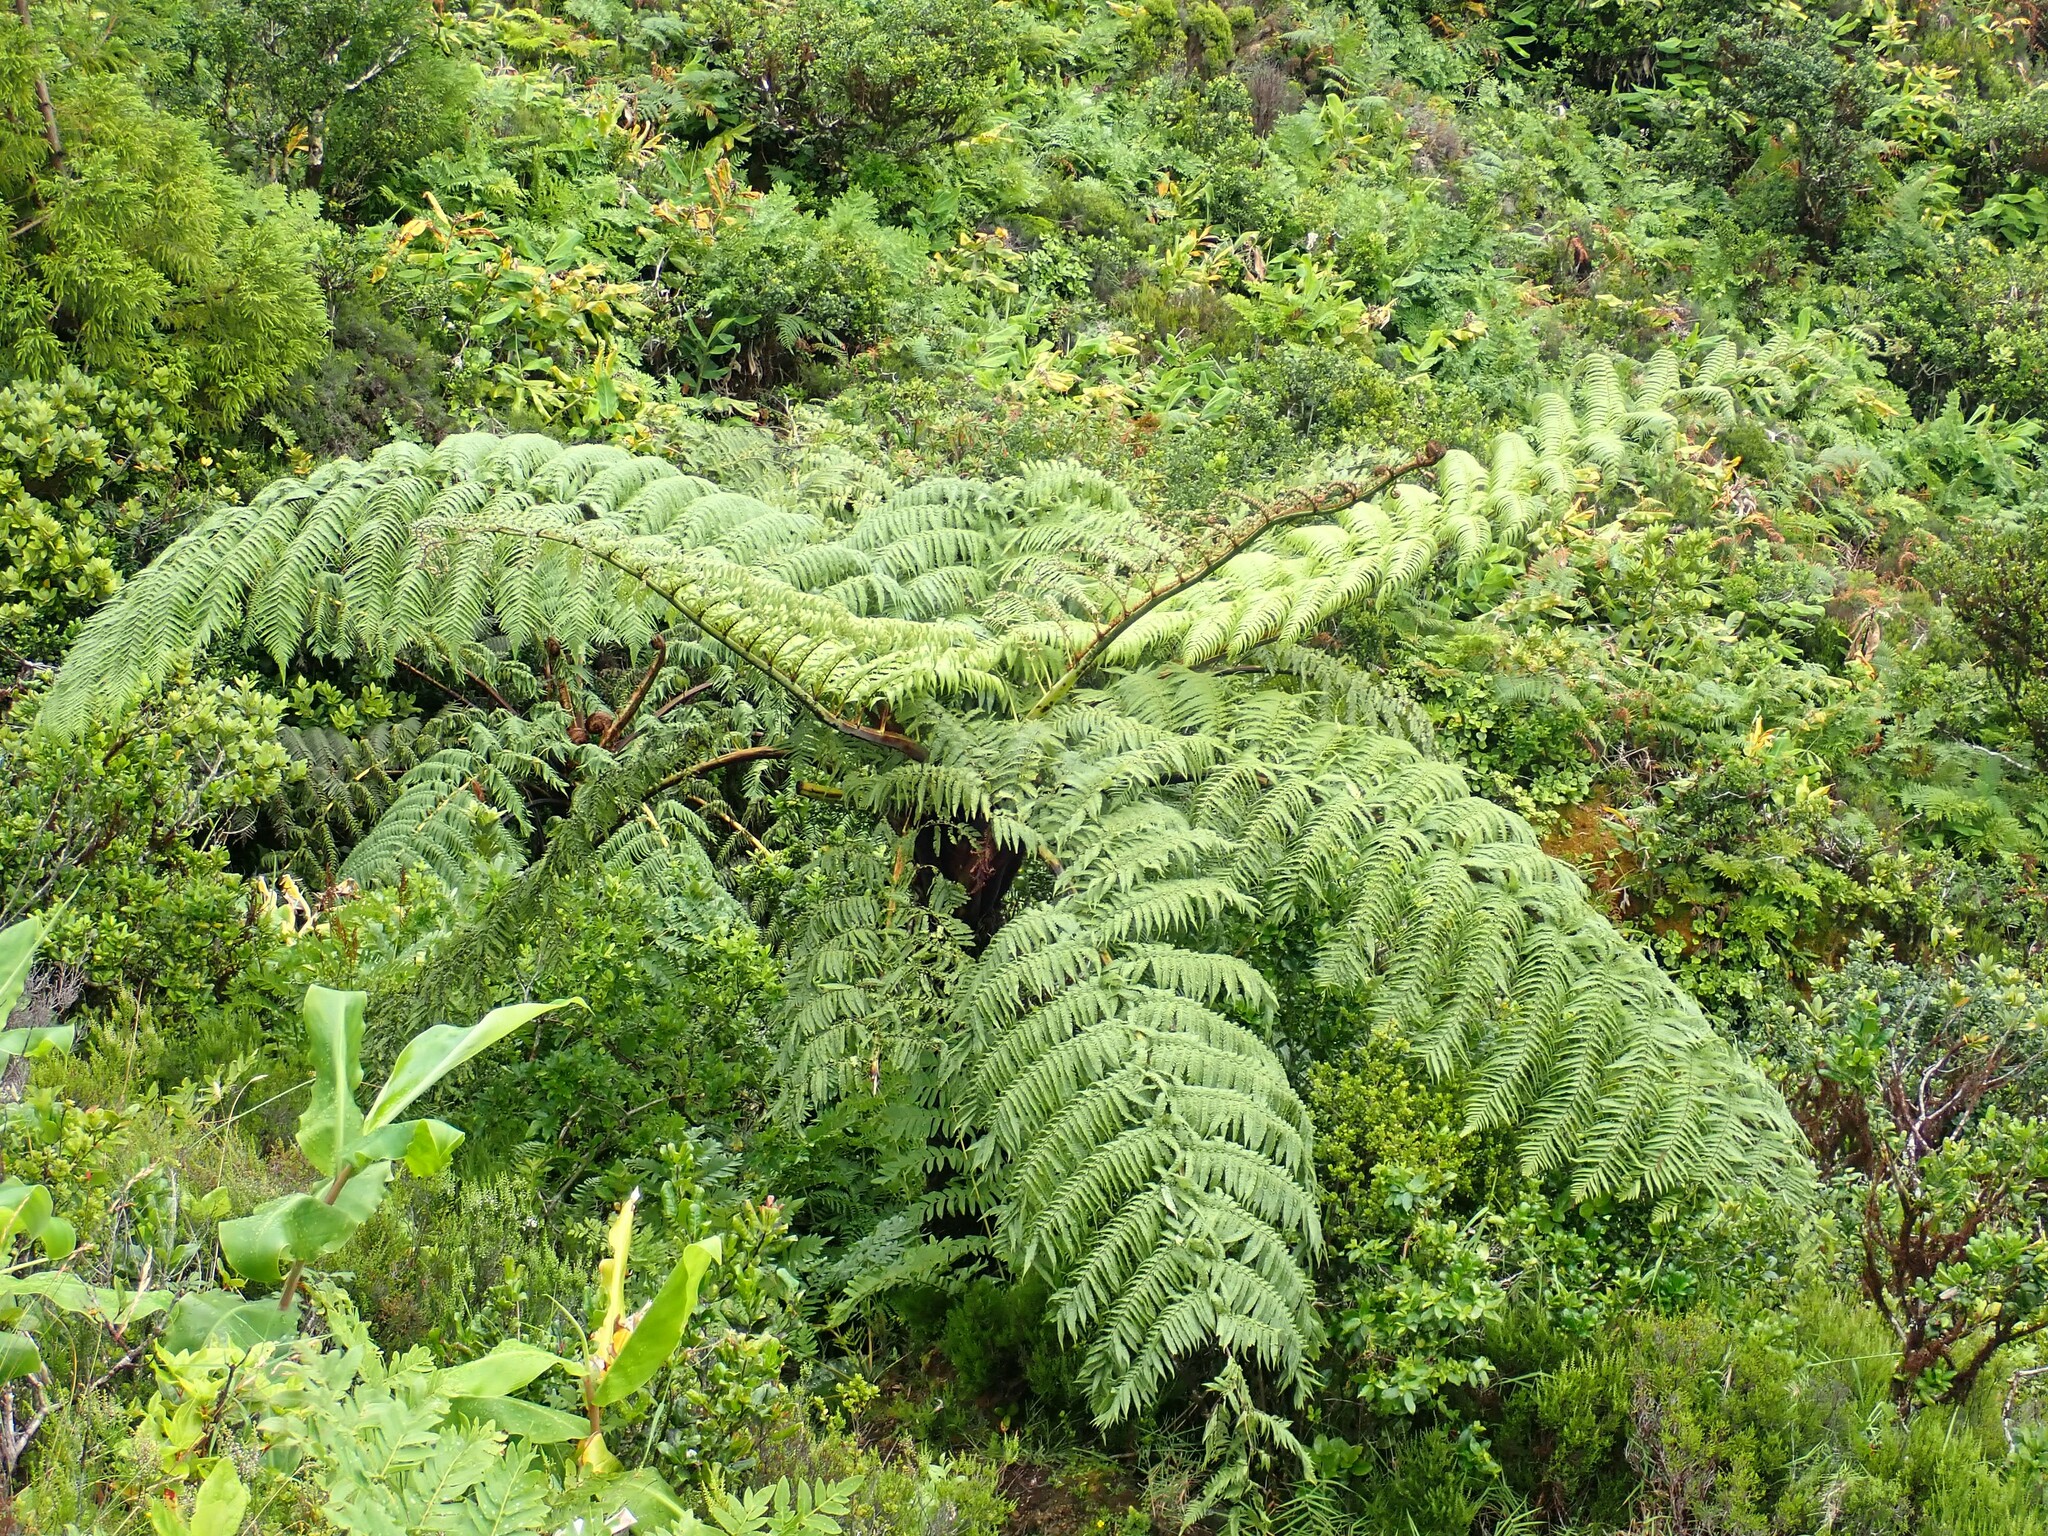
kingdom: Plantae
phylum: Tracheophyta
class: Polypodiopsida
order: Cyatheales
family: Cyatheaceae
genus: Sphaeropteris
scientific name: Sphaeropteris cooperi
